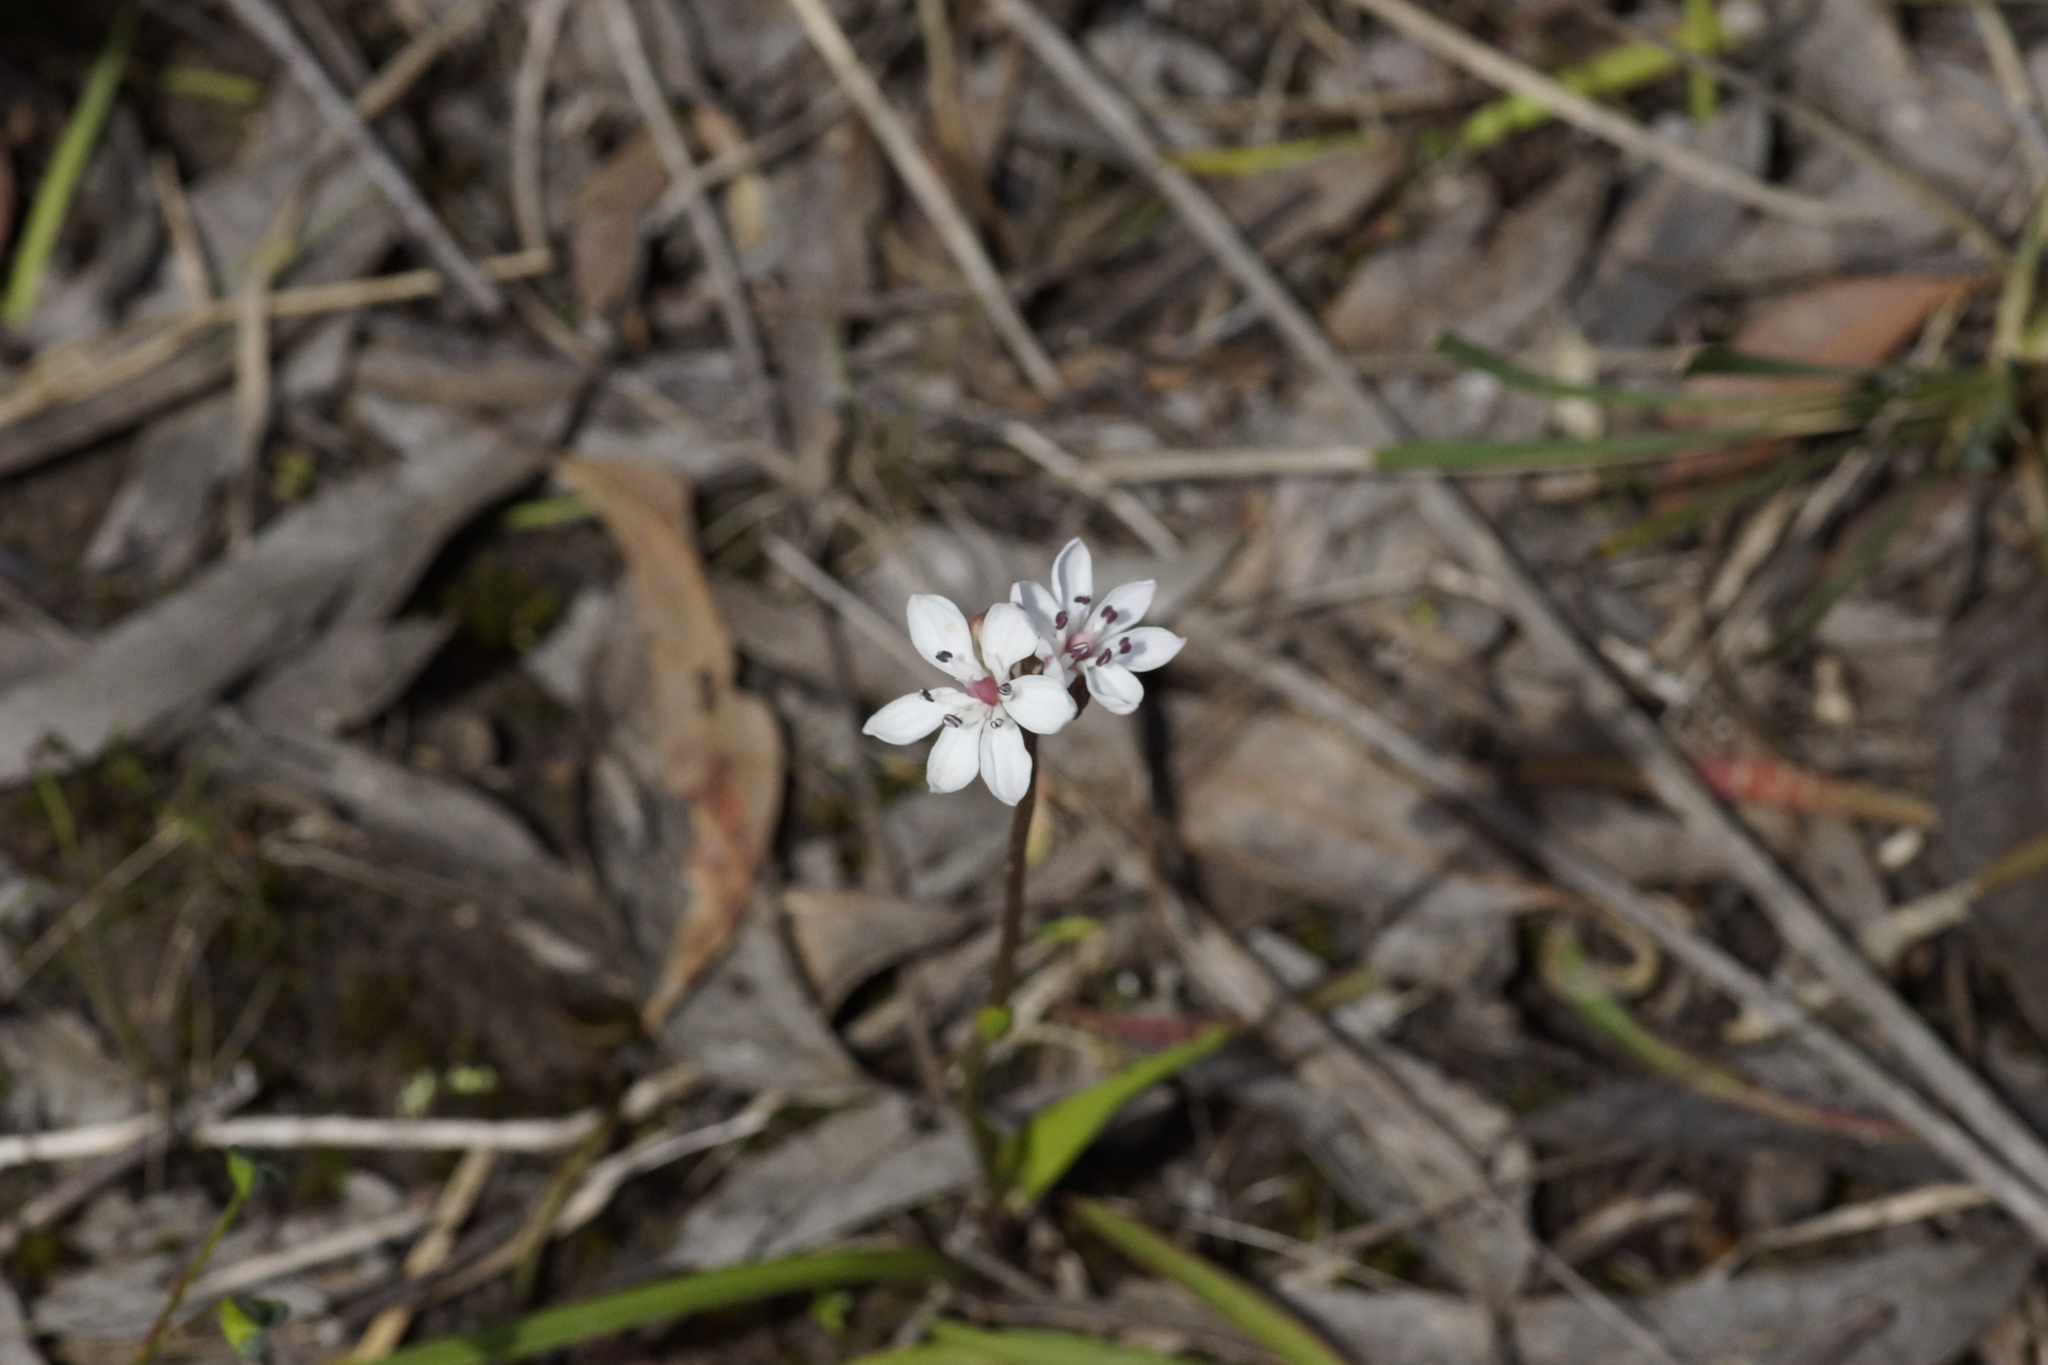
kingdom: Plantae
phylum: Tracheophyta
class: Liliopsida
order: Liliales
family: Colchicaceae
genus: Burchardia
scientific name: Burchardia umbellata
